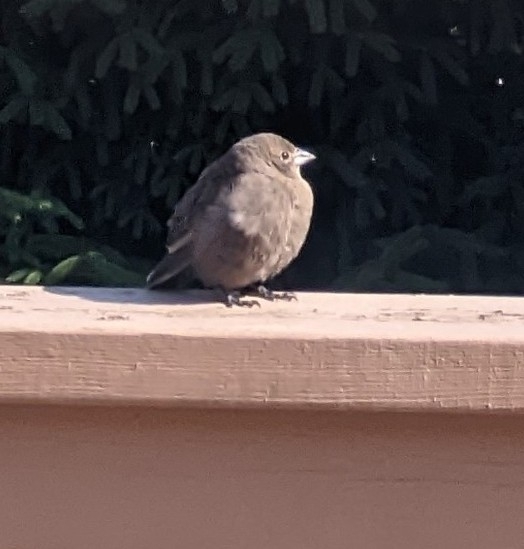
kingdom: Animalia
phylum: Chordata
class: Aves
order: Passeriformes
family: Icteridae
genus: Molothrus
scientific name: Molothrus ater
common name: Brown-headed cowbird
